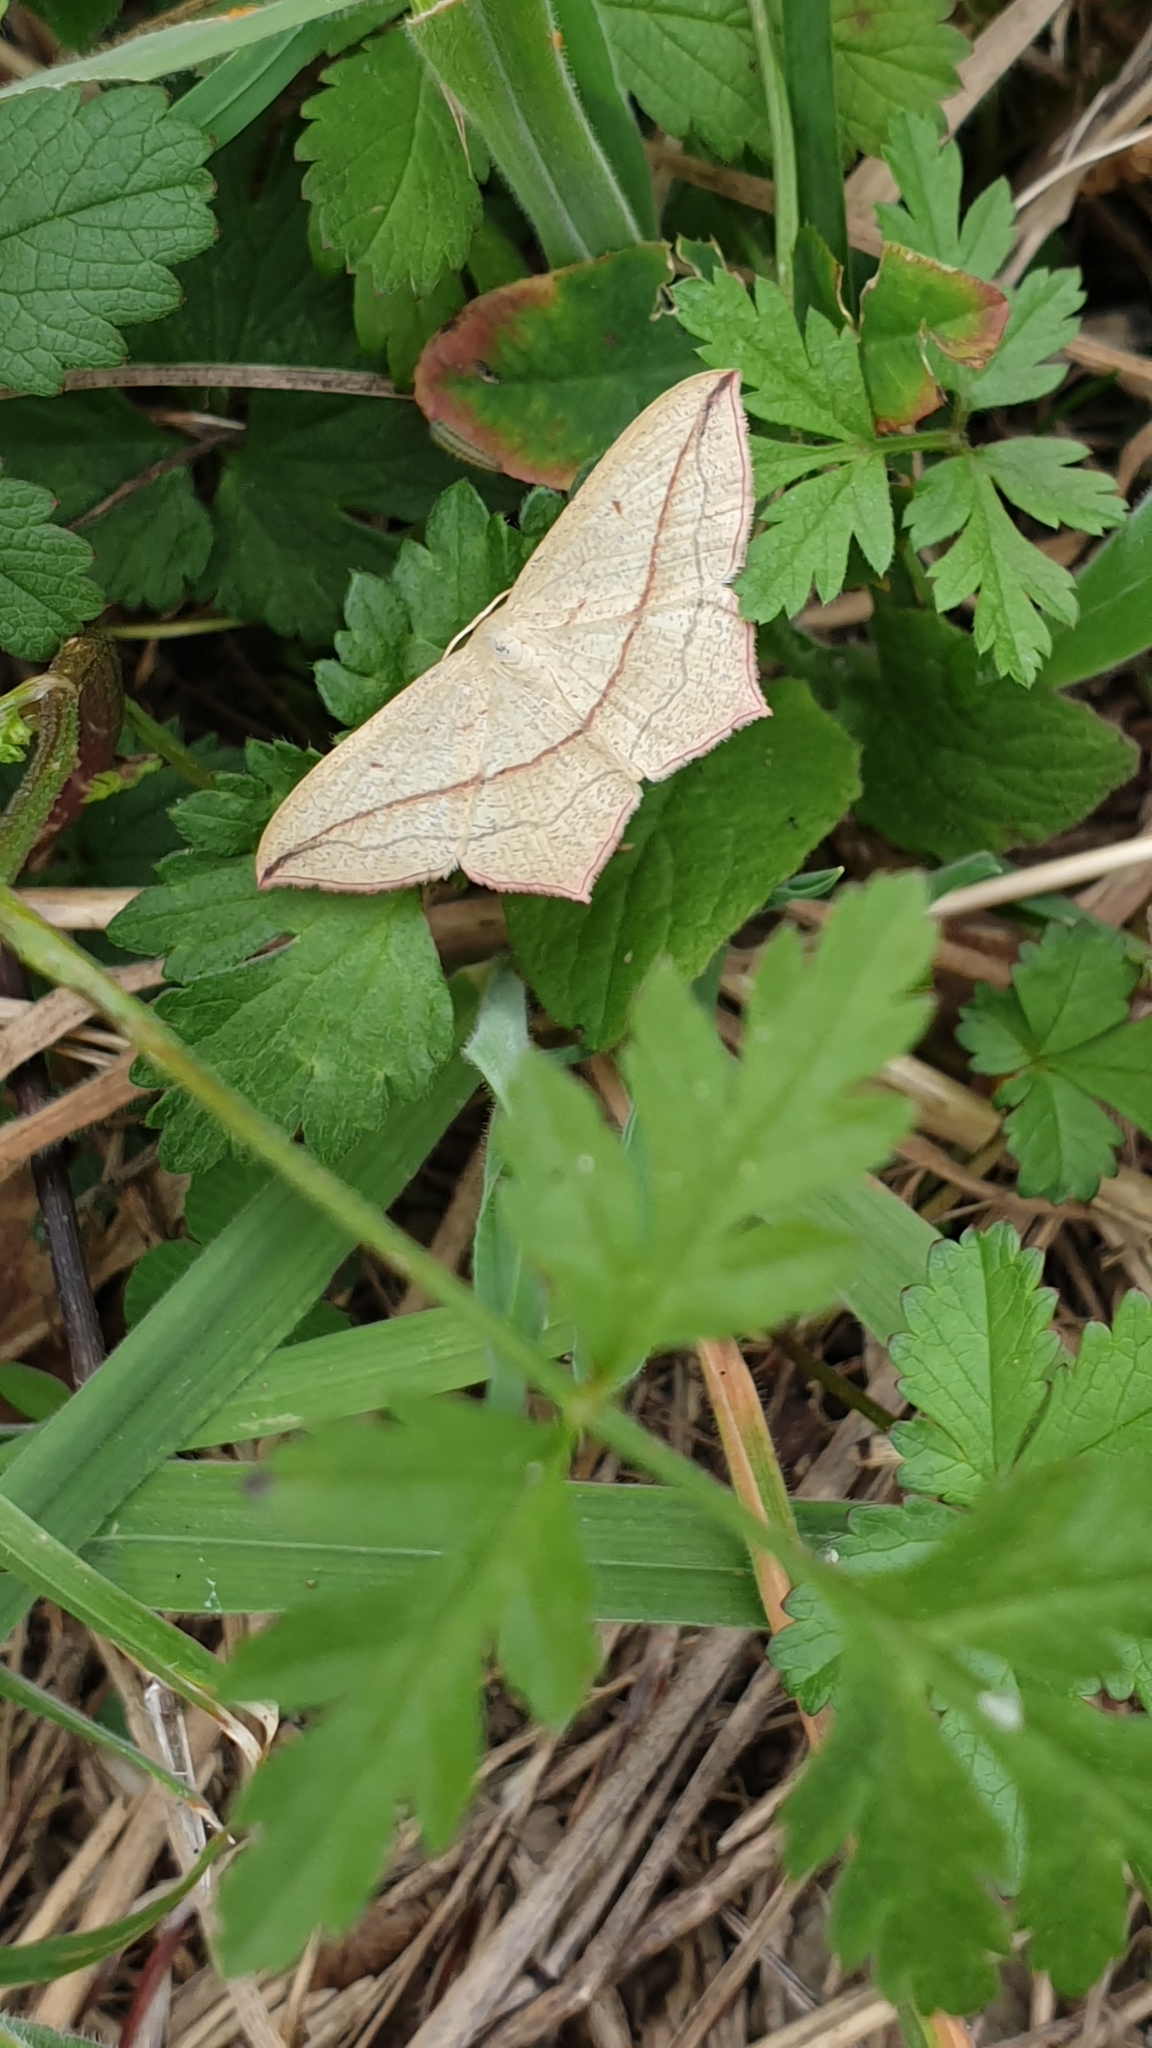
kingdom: Animalia
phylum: Arthropoda
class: Insecta
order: Lepidoptera
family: Geometridae
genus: Timandra
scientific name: Timandra comae
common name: Blood-vein
